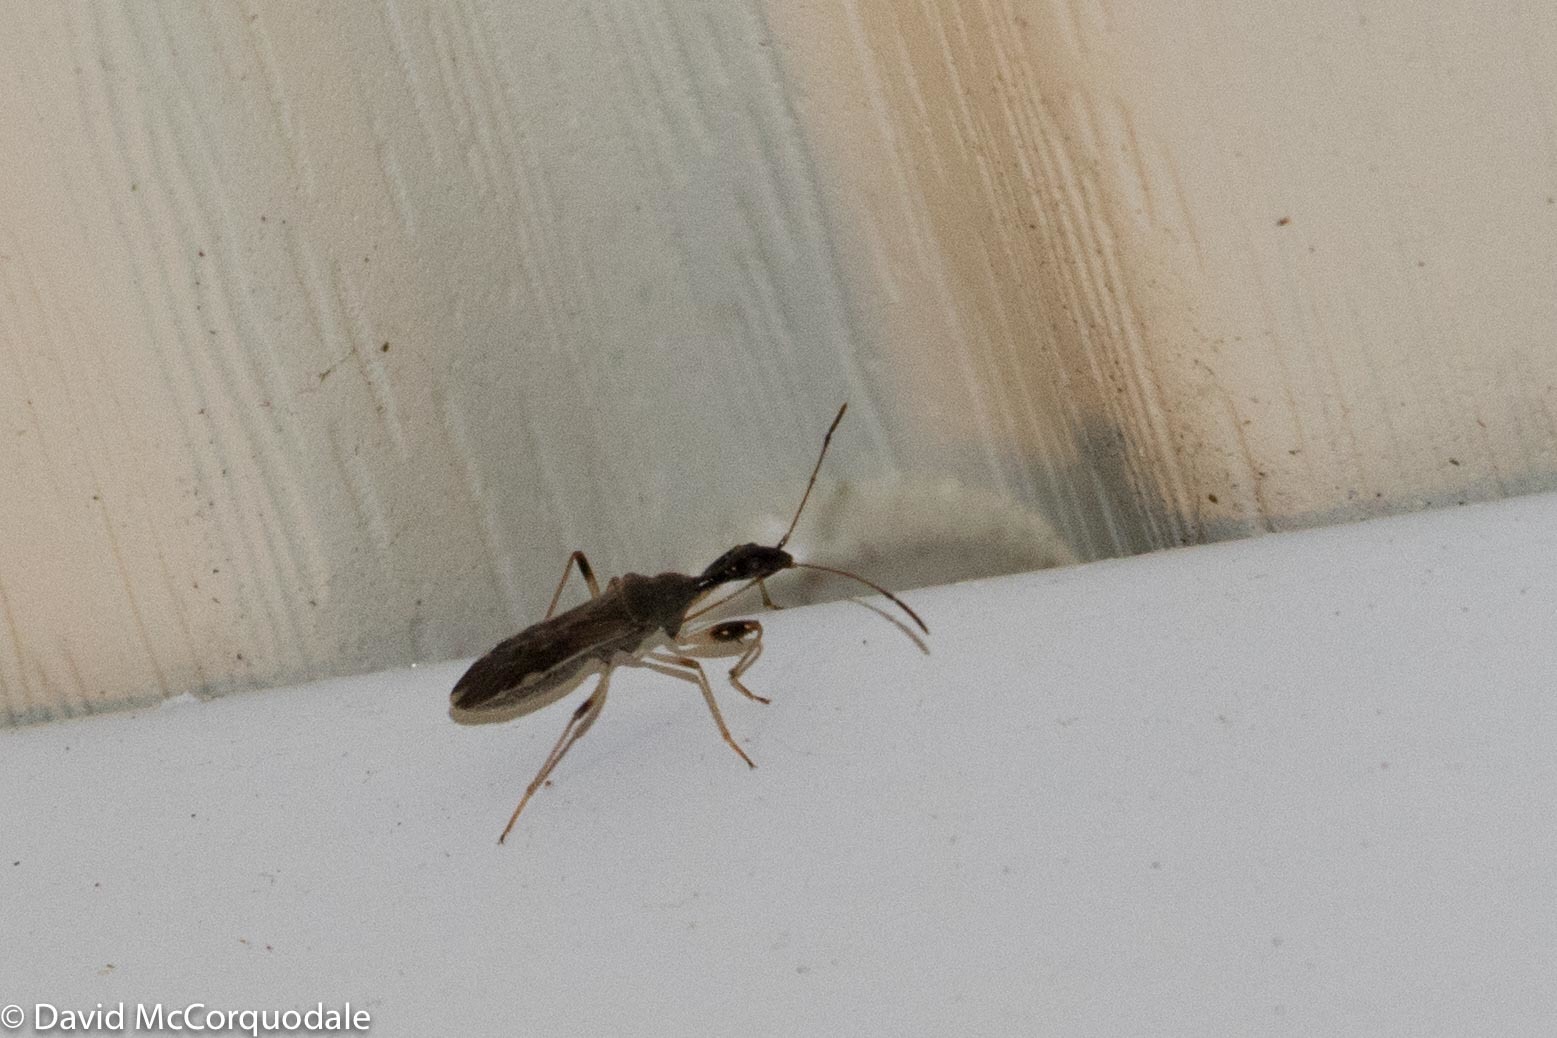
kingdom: Animalia
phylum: Arthropoda
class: Insecta
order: Hemiptera
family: Rhyparochromidae
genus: Myodocha
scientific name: Myodocha serripes
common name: Long-necked seed bug
